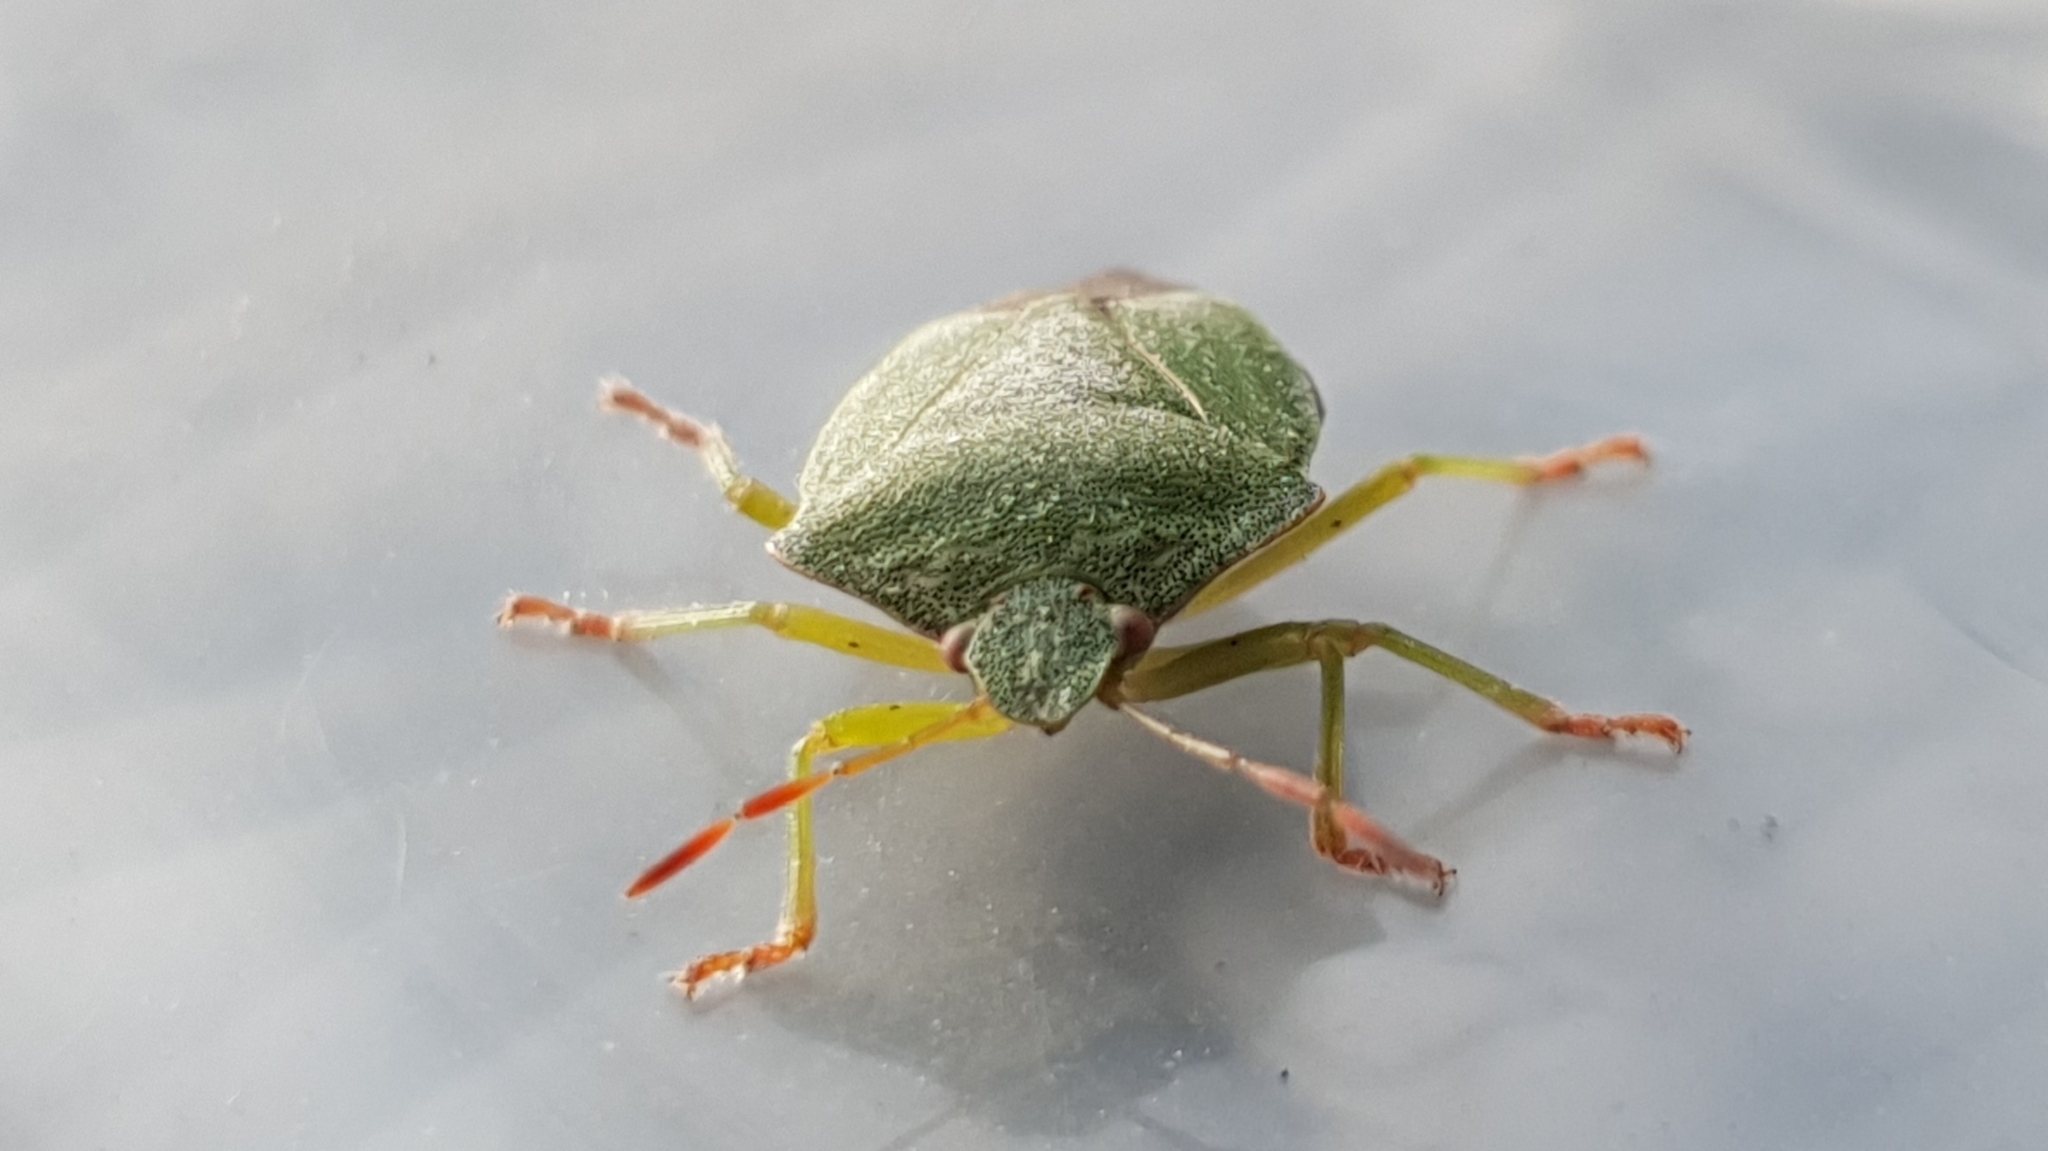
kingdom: Animalia
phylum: Arthropoda
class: Insecta
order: Hemiptera
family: Pentatomidae
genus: Palomena
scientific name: Palomena prasina
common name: Green shieldbug
